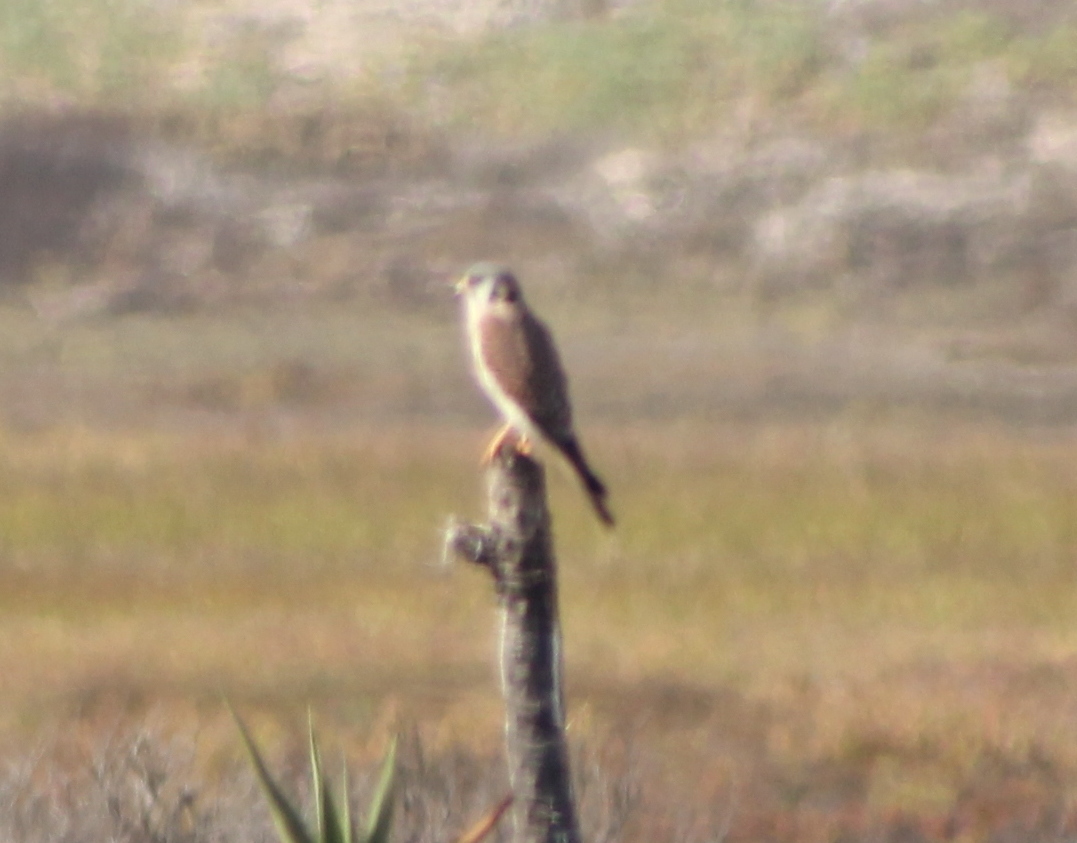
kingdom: Animalia
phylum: Chordata
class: Aves
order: Falconiformes
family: Falconidae
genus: Falco
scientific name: Falco sparverius
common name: American kestrel
